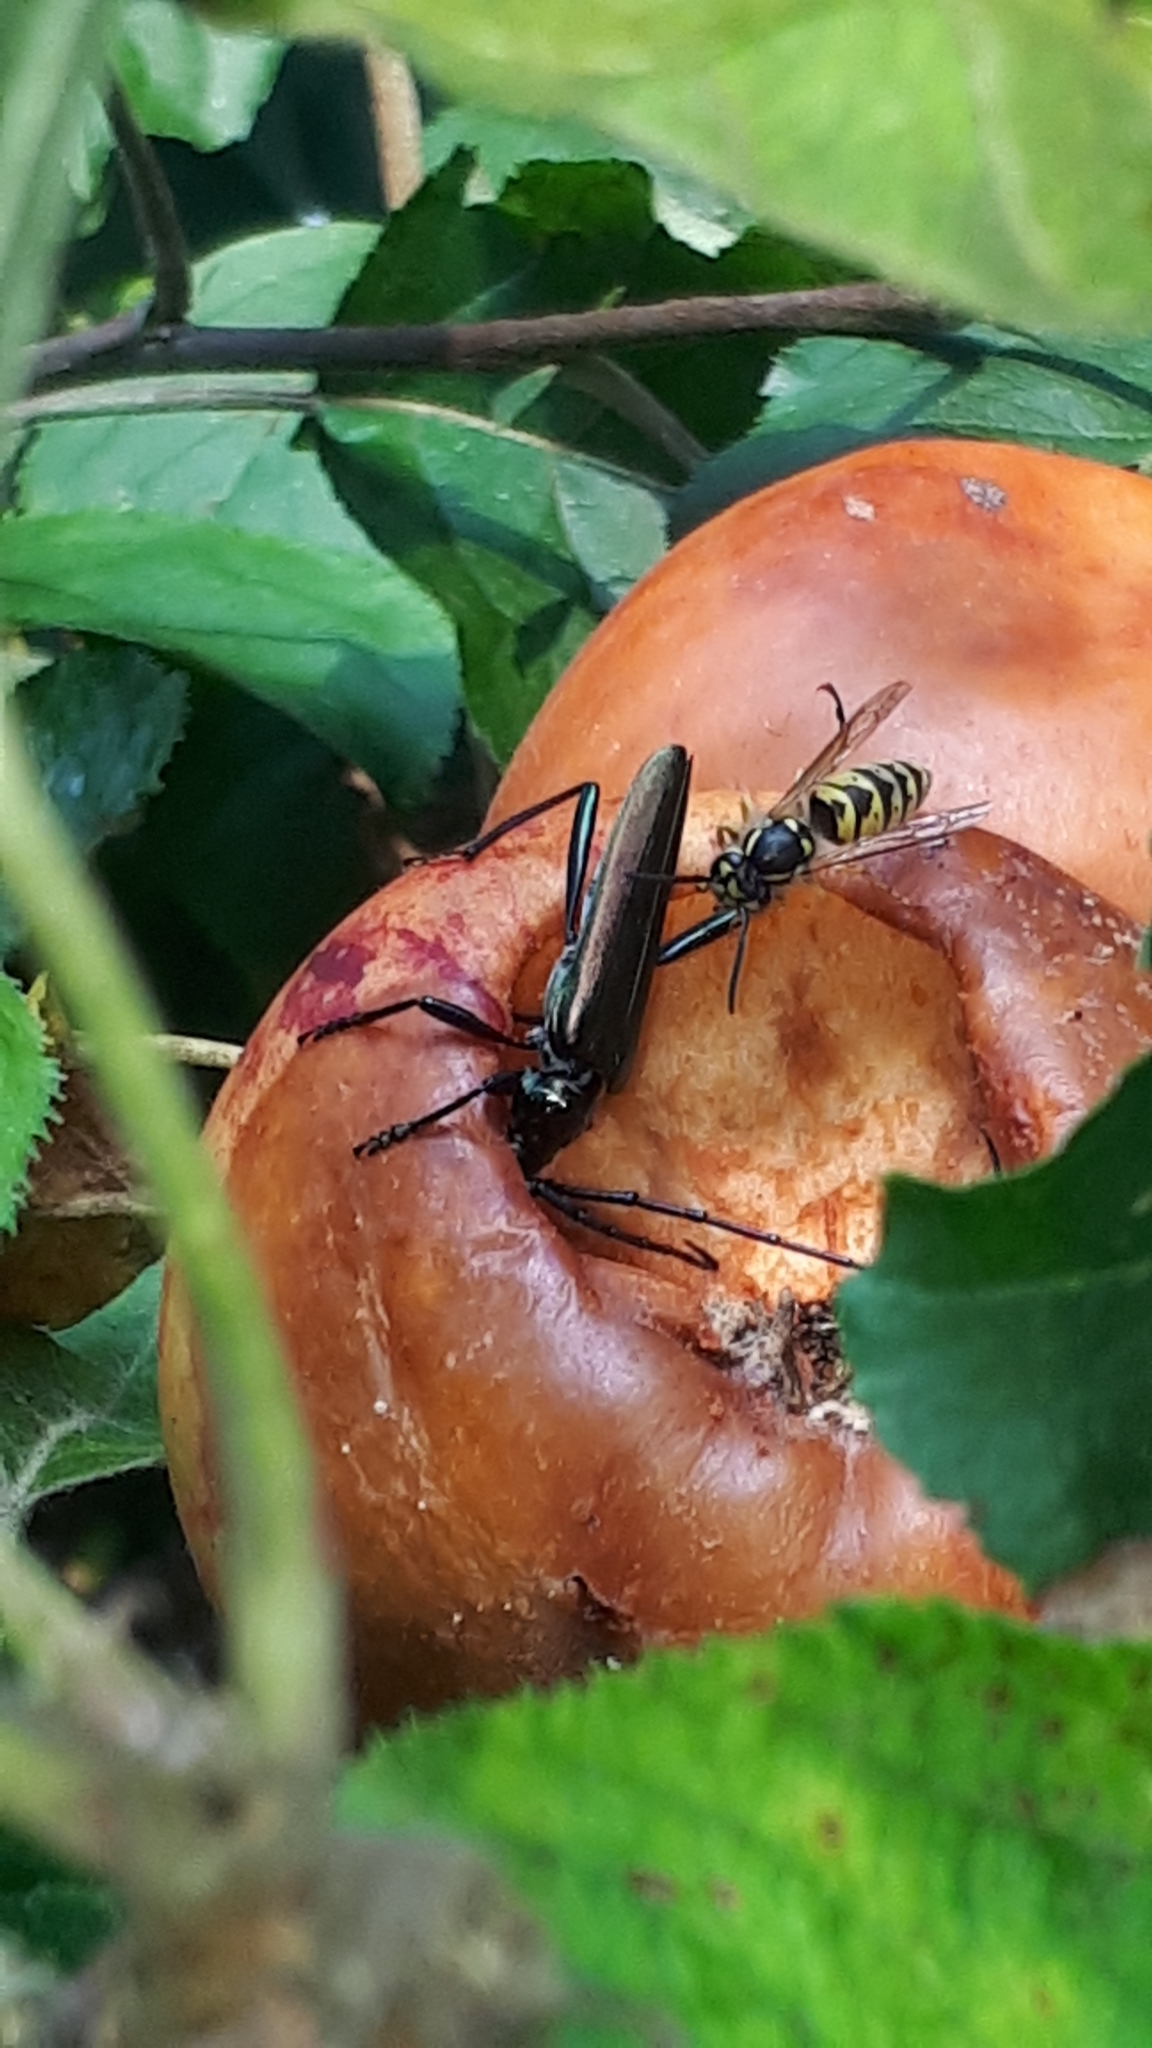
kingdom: Animalia
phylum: Arthropoda
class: Insecta
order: Coleoptera
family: Cerambycidae
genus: Aromia
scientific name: Aromia moschata
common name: Musk beetle
